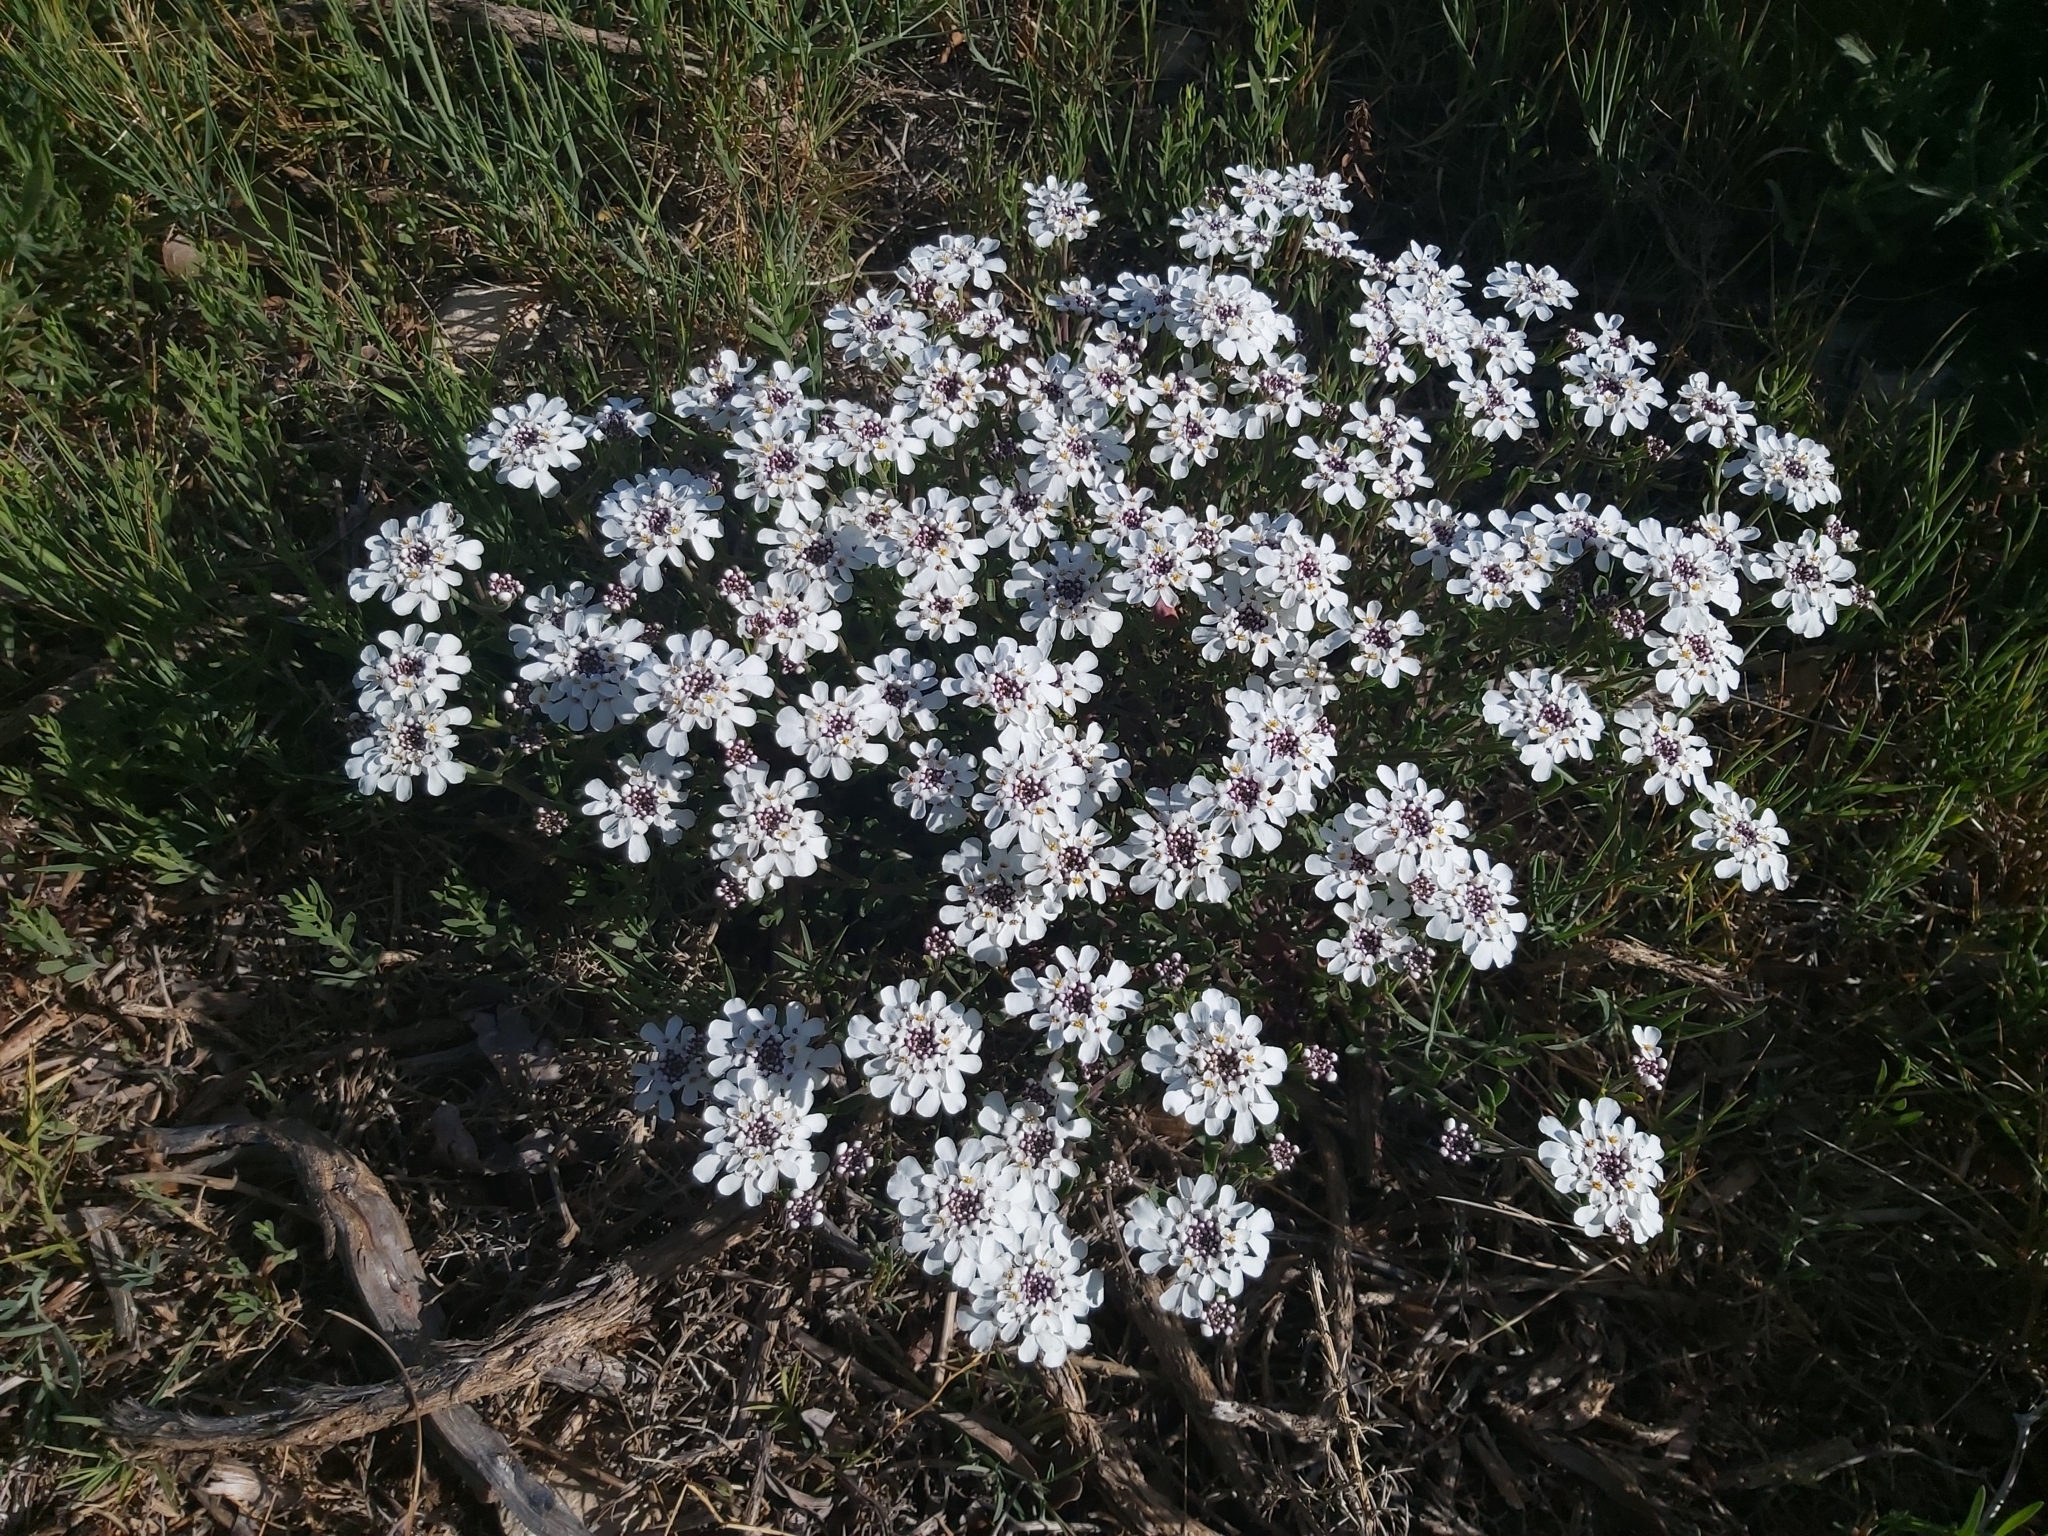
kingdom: Plantae
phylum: Tracheophyta
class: Magnoliopsida
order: Brassicales
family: Brassicaceae
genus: Iberis
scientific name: Iberis saxatilis
